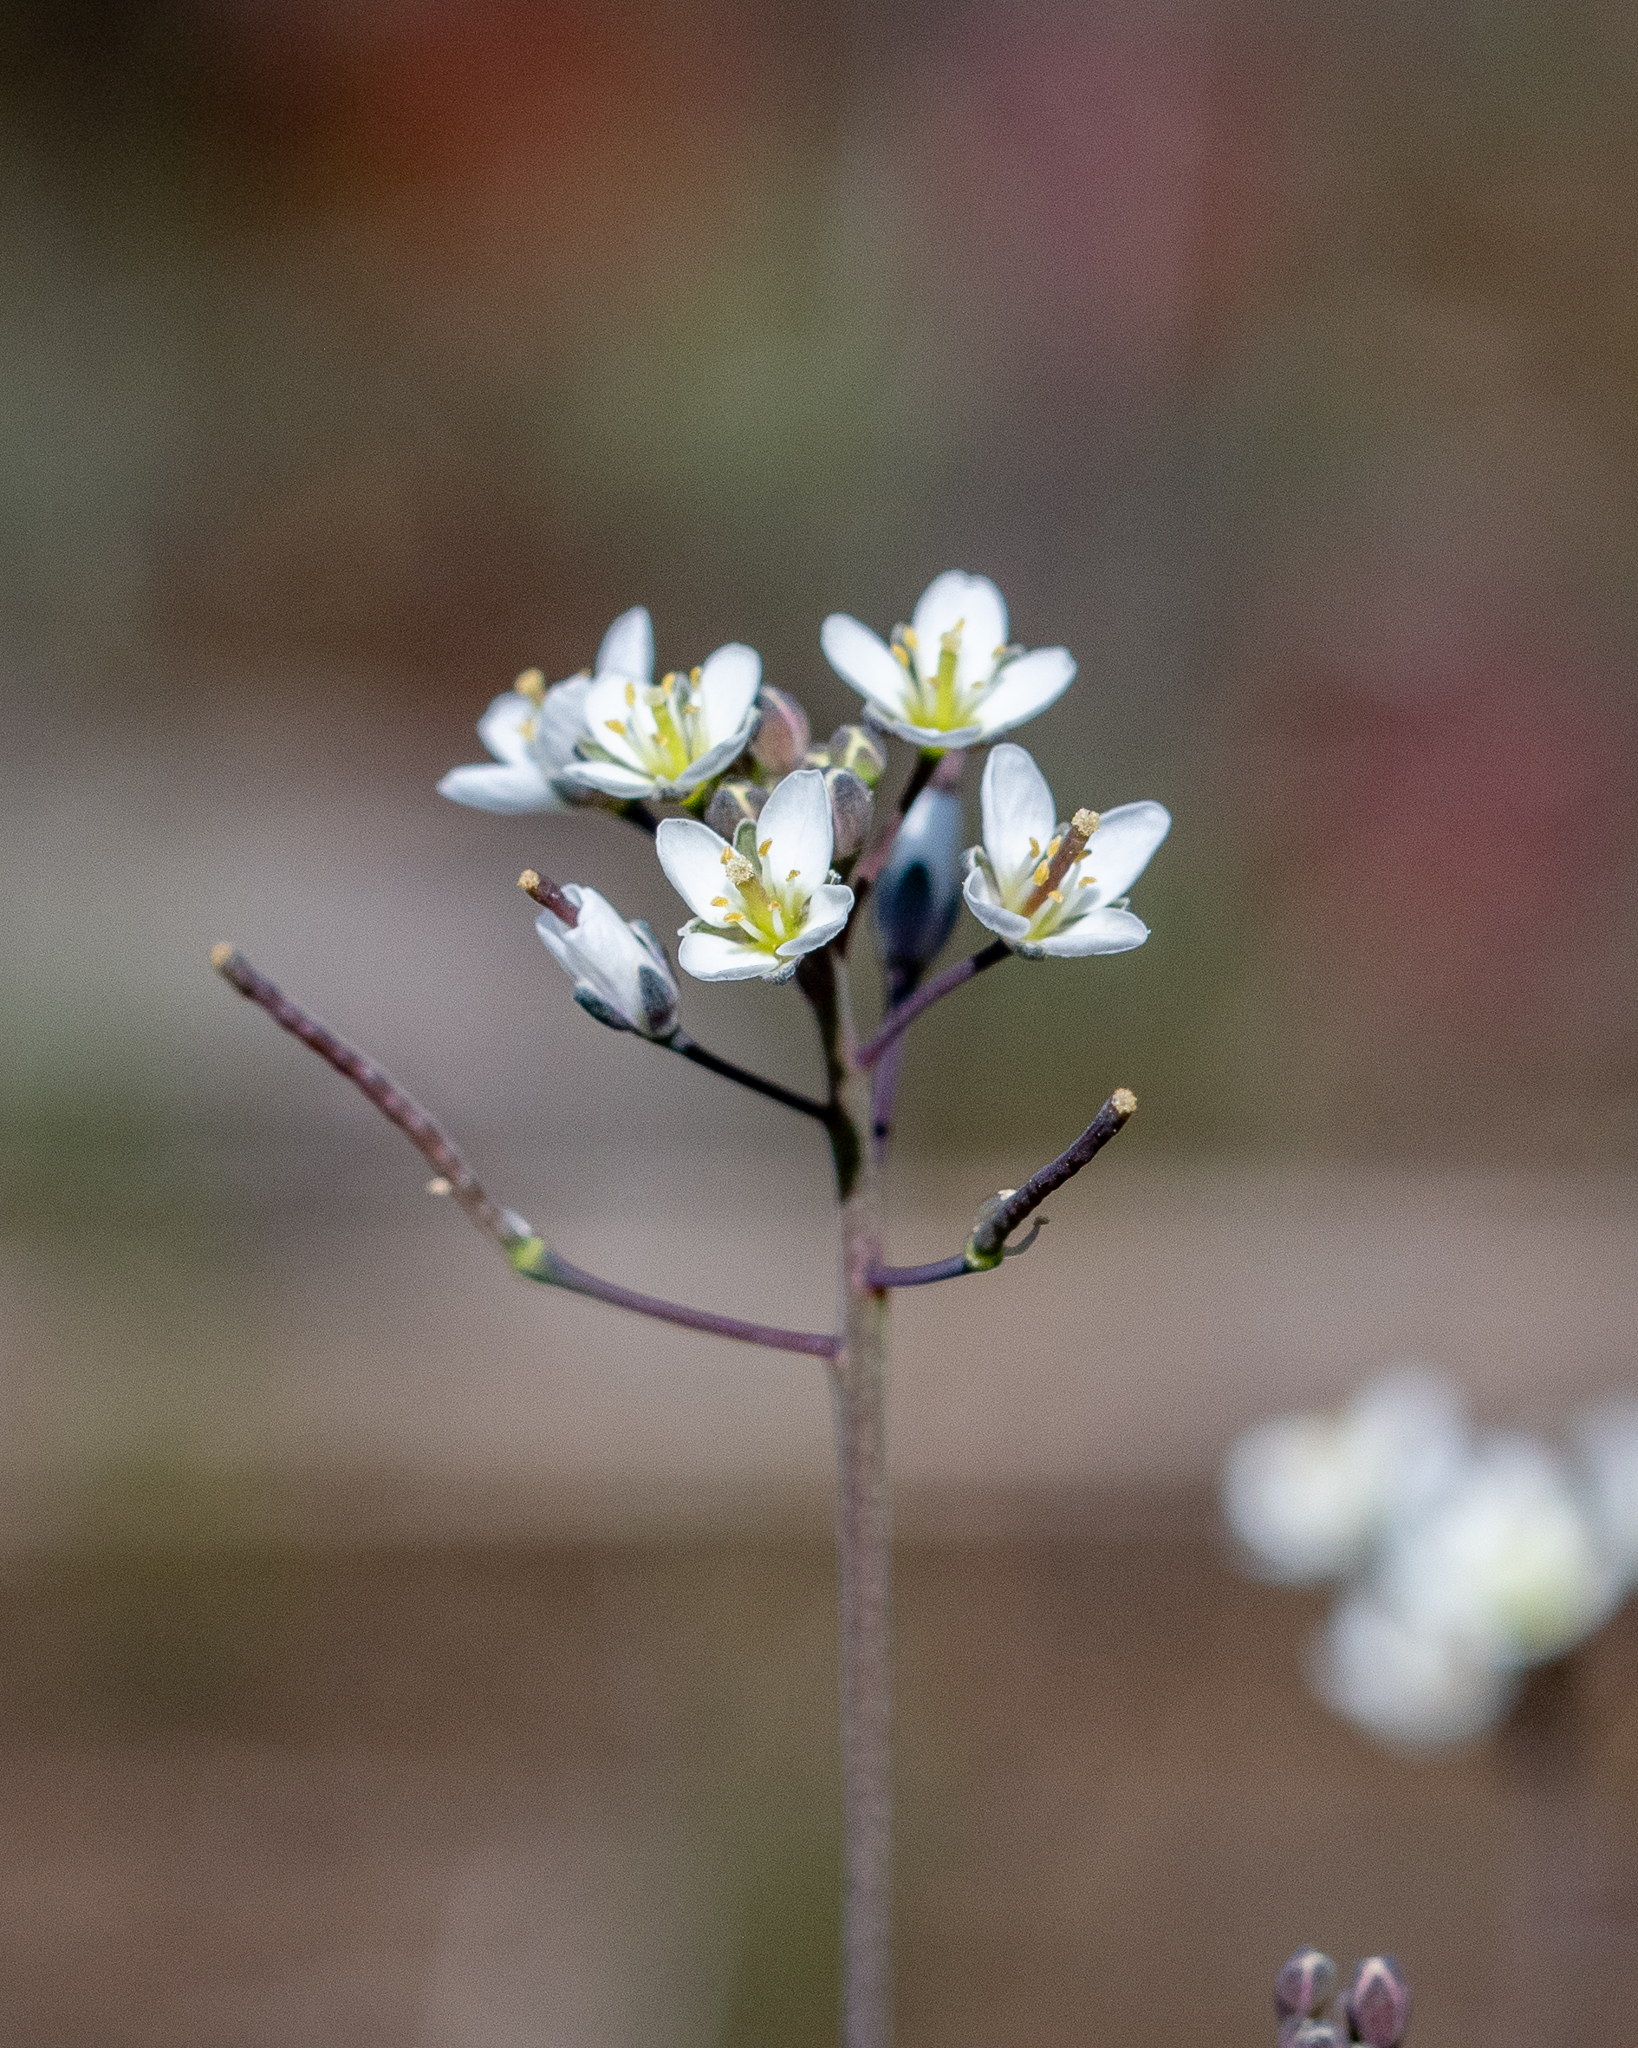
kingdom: Plantae
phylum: Tracheophyta
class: Magnoliopsida
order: Brassicales
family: Brassicaceae
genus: Heliophila
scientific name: Heliophila pusilla
